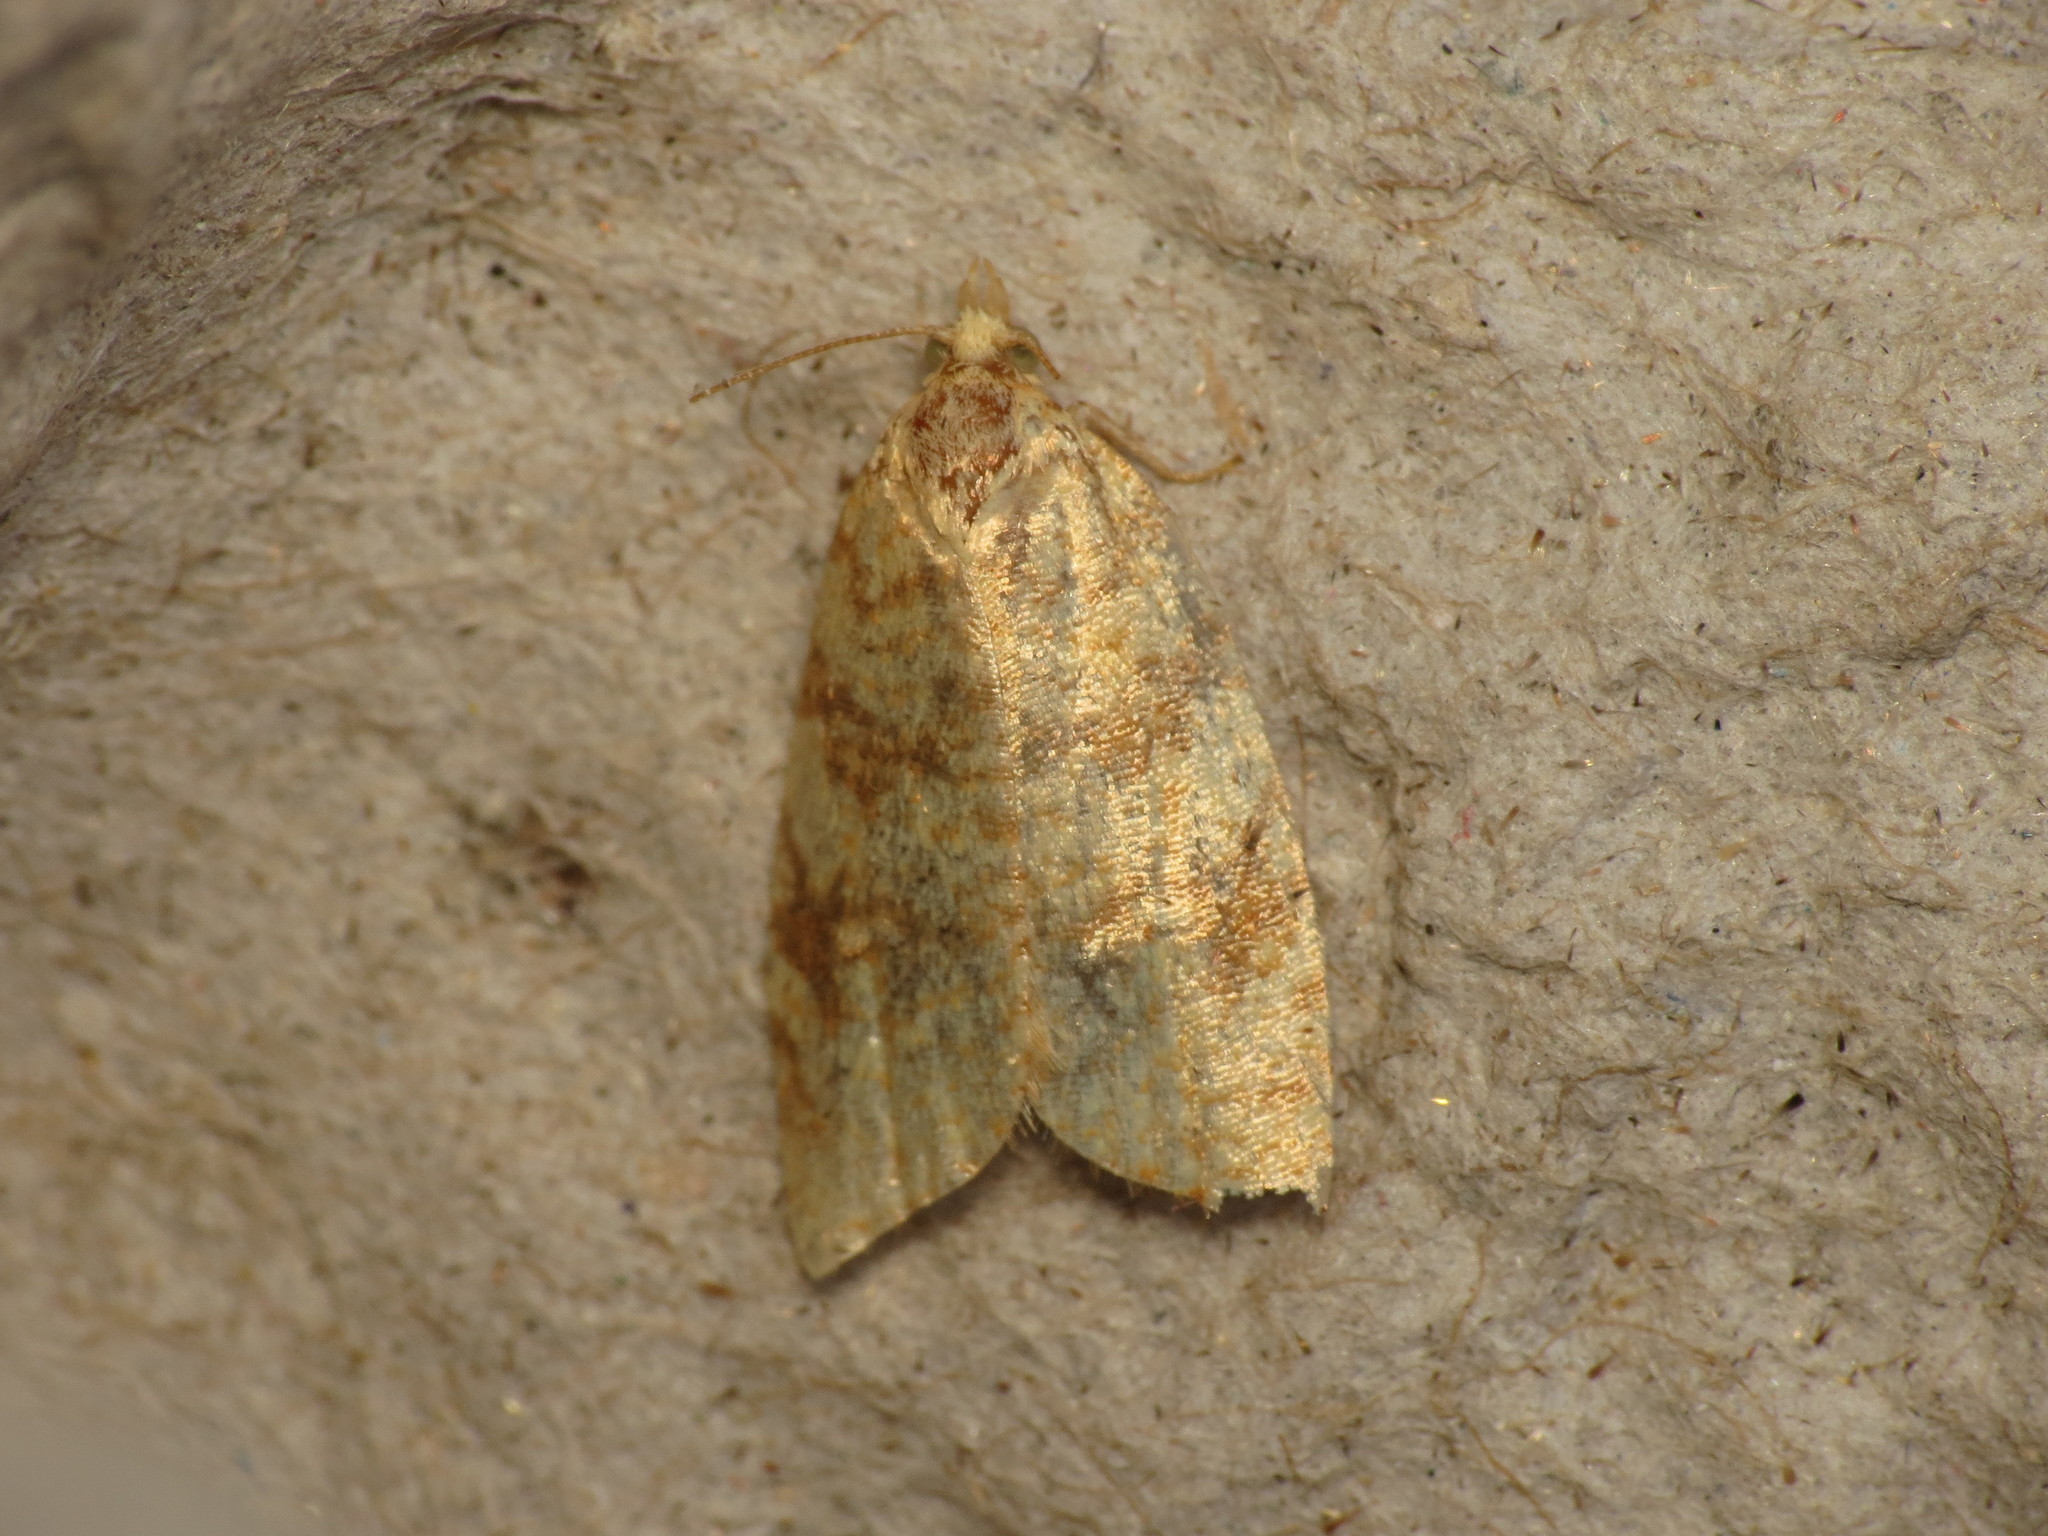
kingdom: Animalia
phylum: Arthropoda
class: Insecta
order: Lepidoptera
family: Tortricidae
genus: Aleimma
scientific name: Aleimma loeflingiana
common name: Yellow oak button
